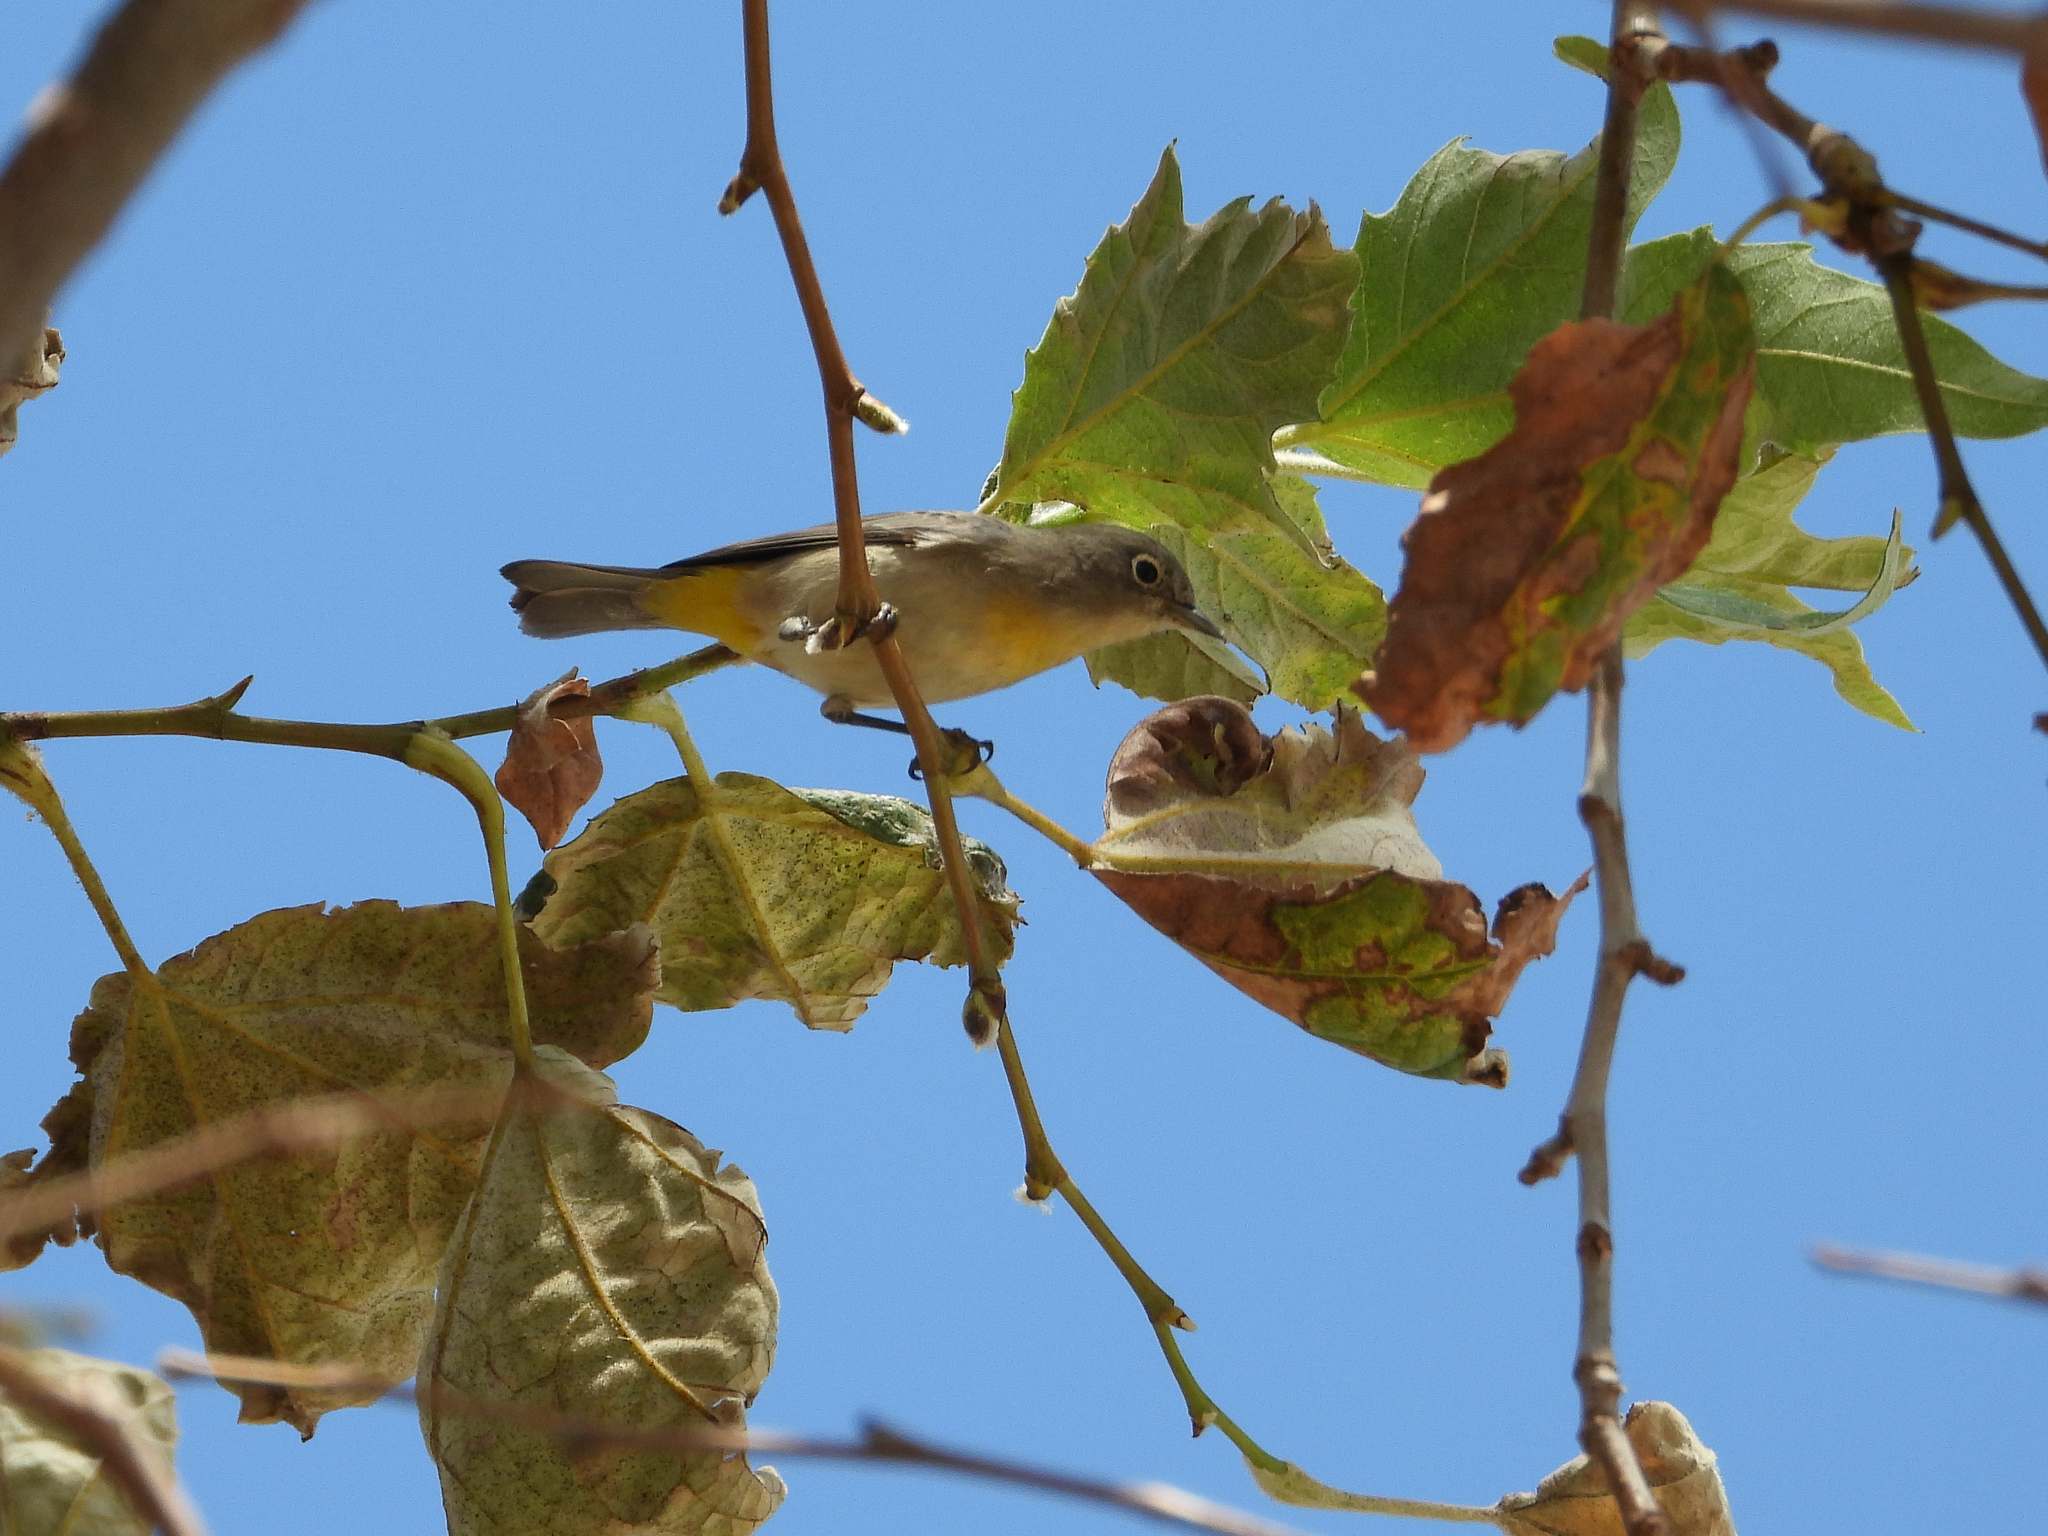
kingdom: Animalia
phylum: Chordata
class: Aves
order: Passeriformes
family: Parulidae
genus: Leiothlypis
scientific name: Leiothlypis virginiae
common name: Virginia's warbler
